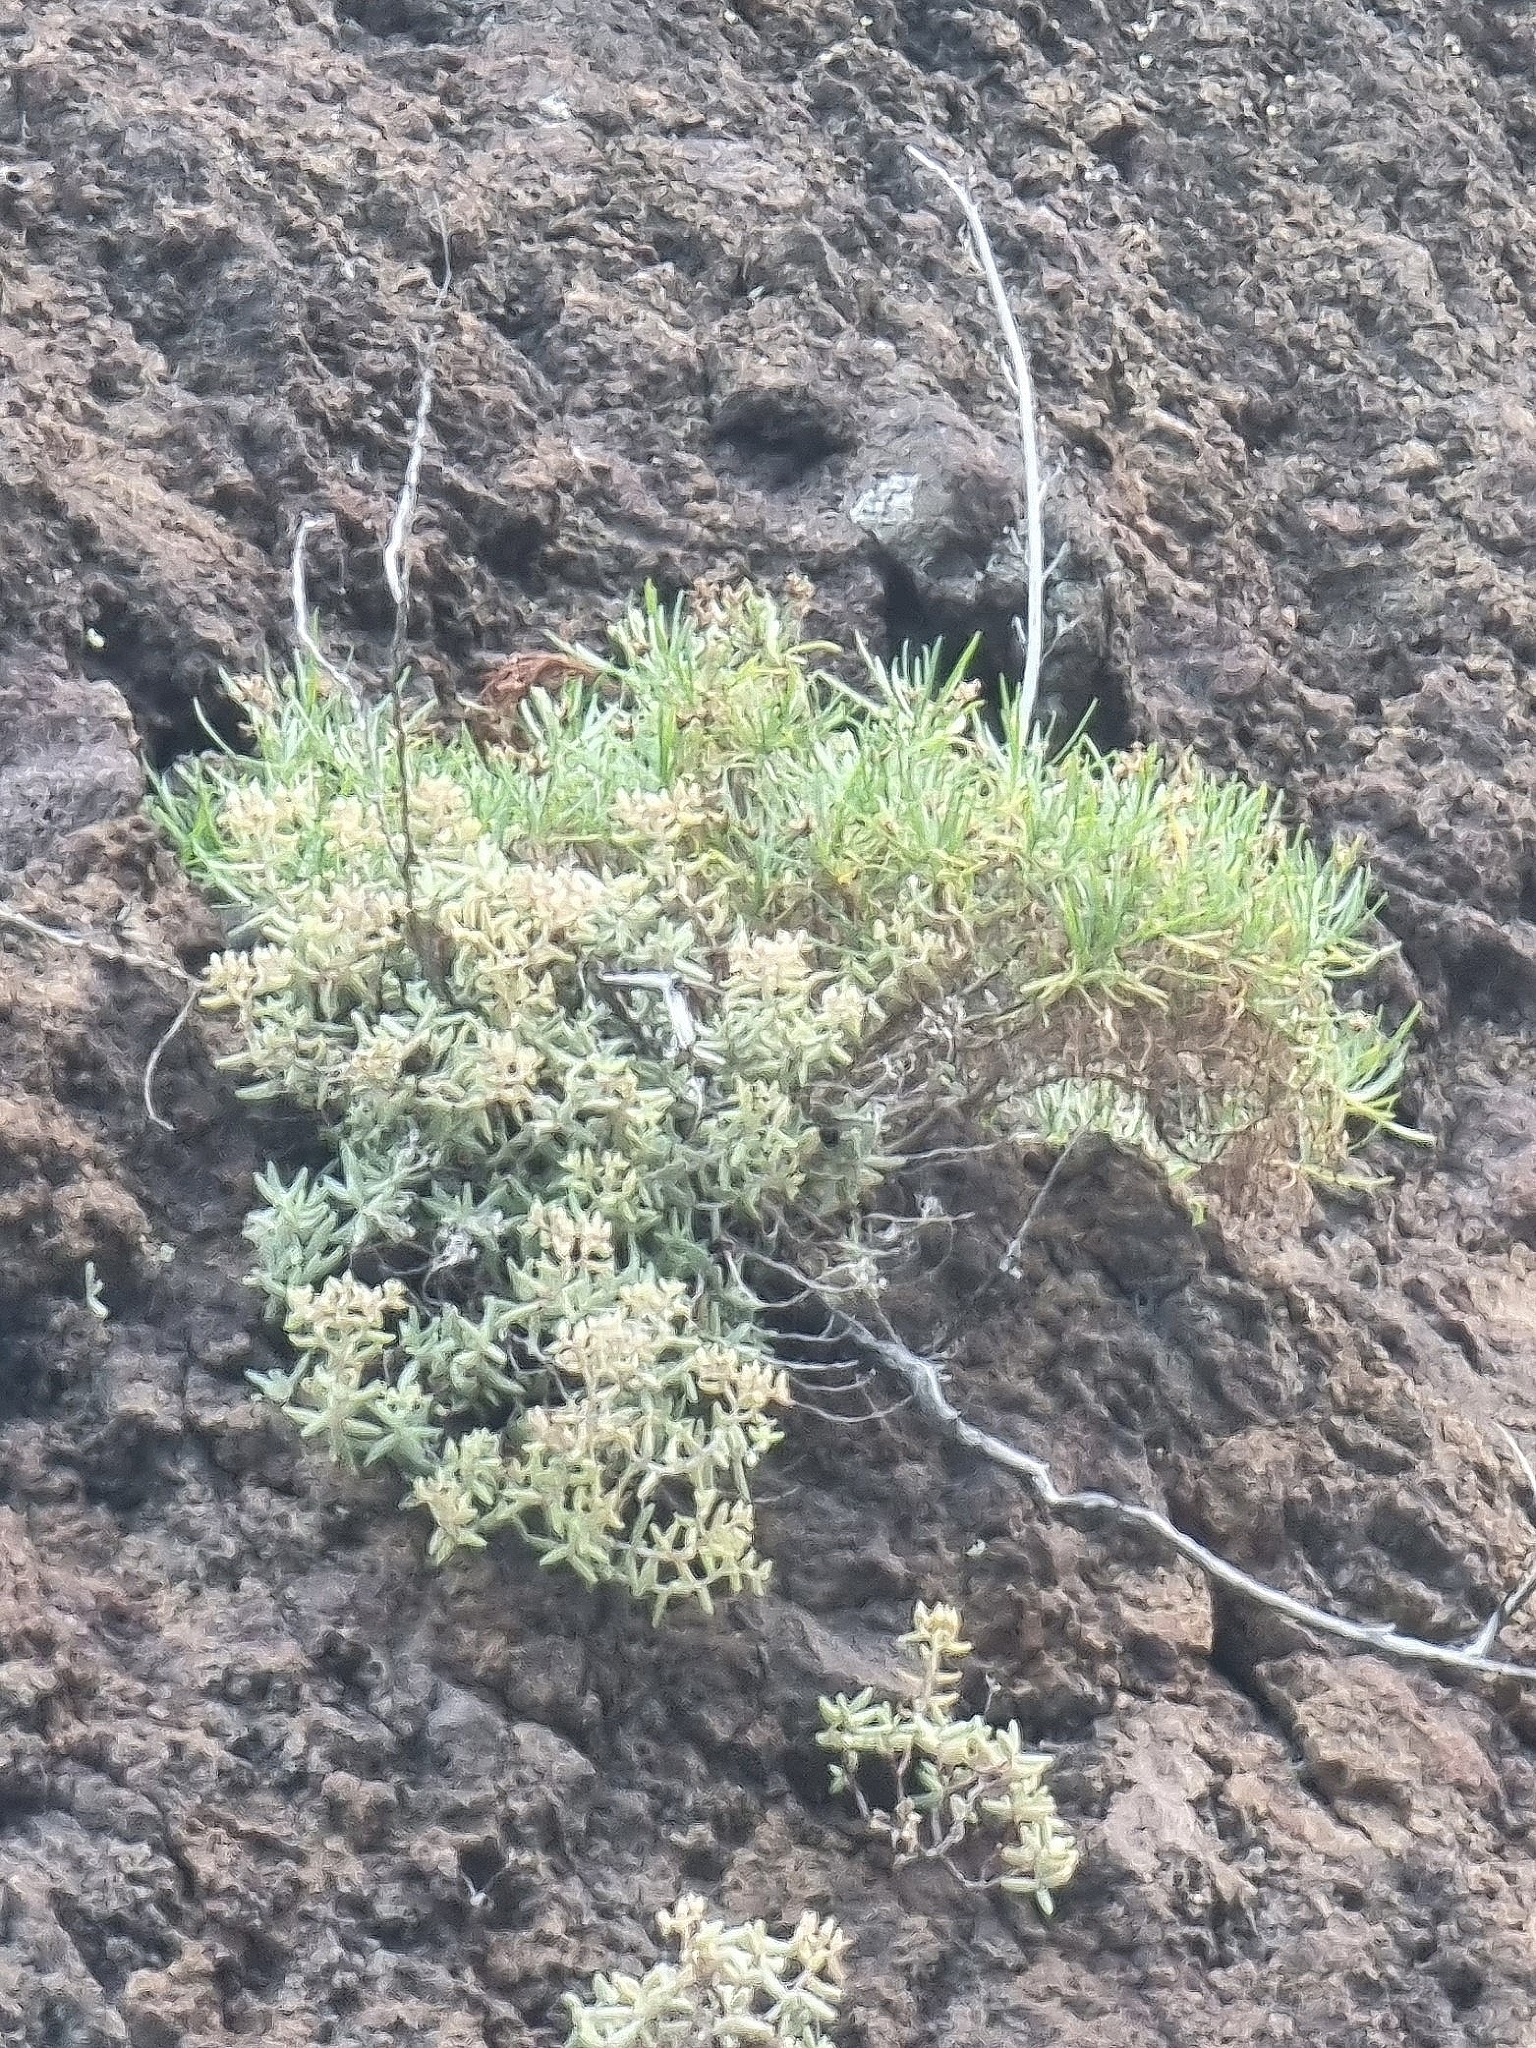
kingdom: Plantae
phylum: Tracheophyta
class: Magnoliopsida
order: Lamiales
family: Plantaginaceae
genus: Plantago
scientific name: Plantago arborescens
